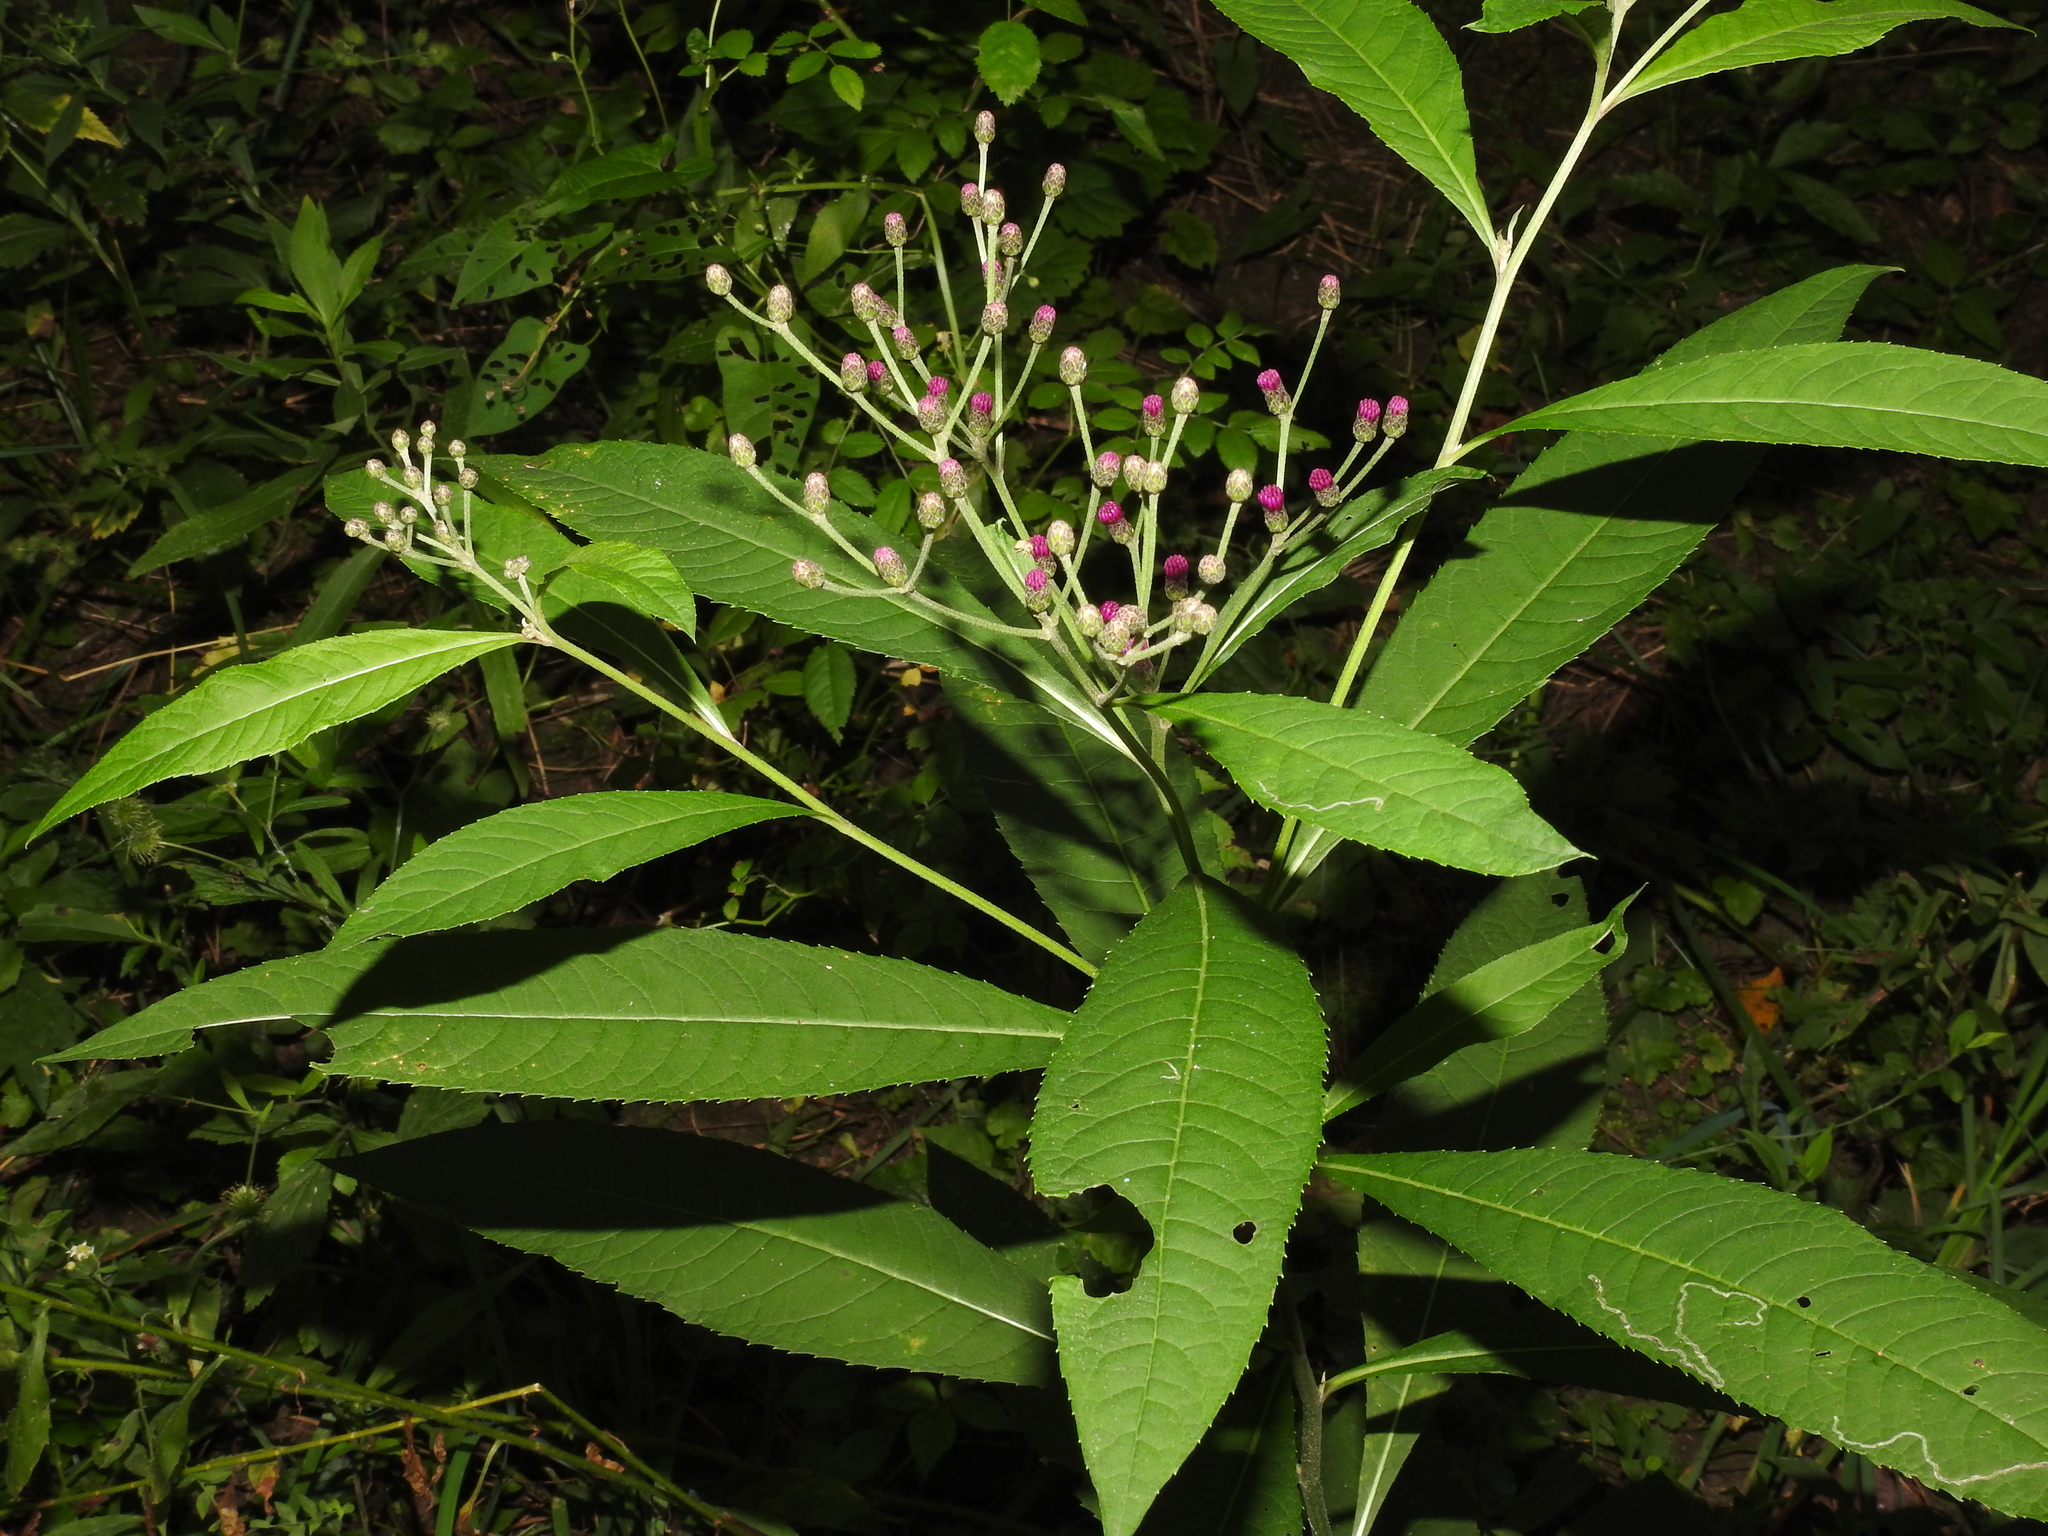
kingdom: Plantae
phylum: Tracheophyta
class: Magnoliopsida
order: Asterales
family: Asteraceae
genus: Vernonia
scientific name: Vernonia gigantea
